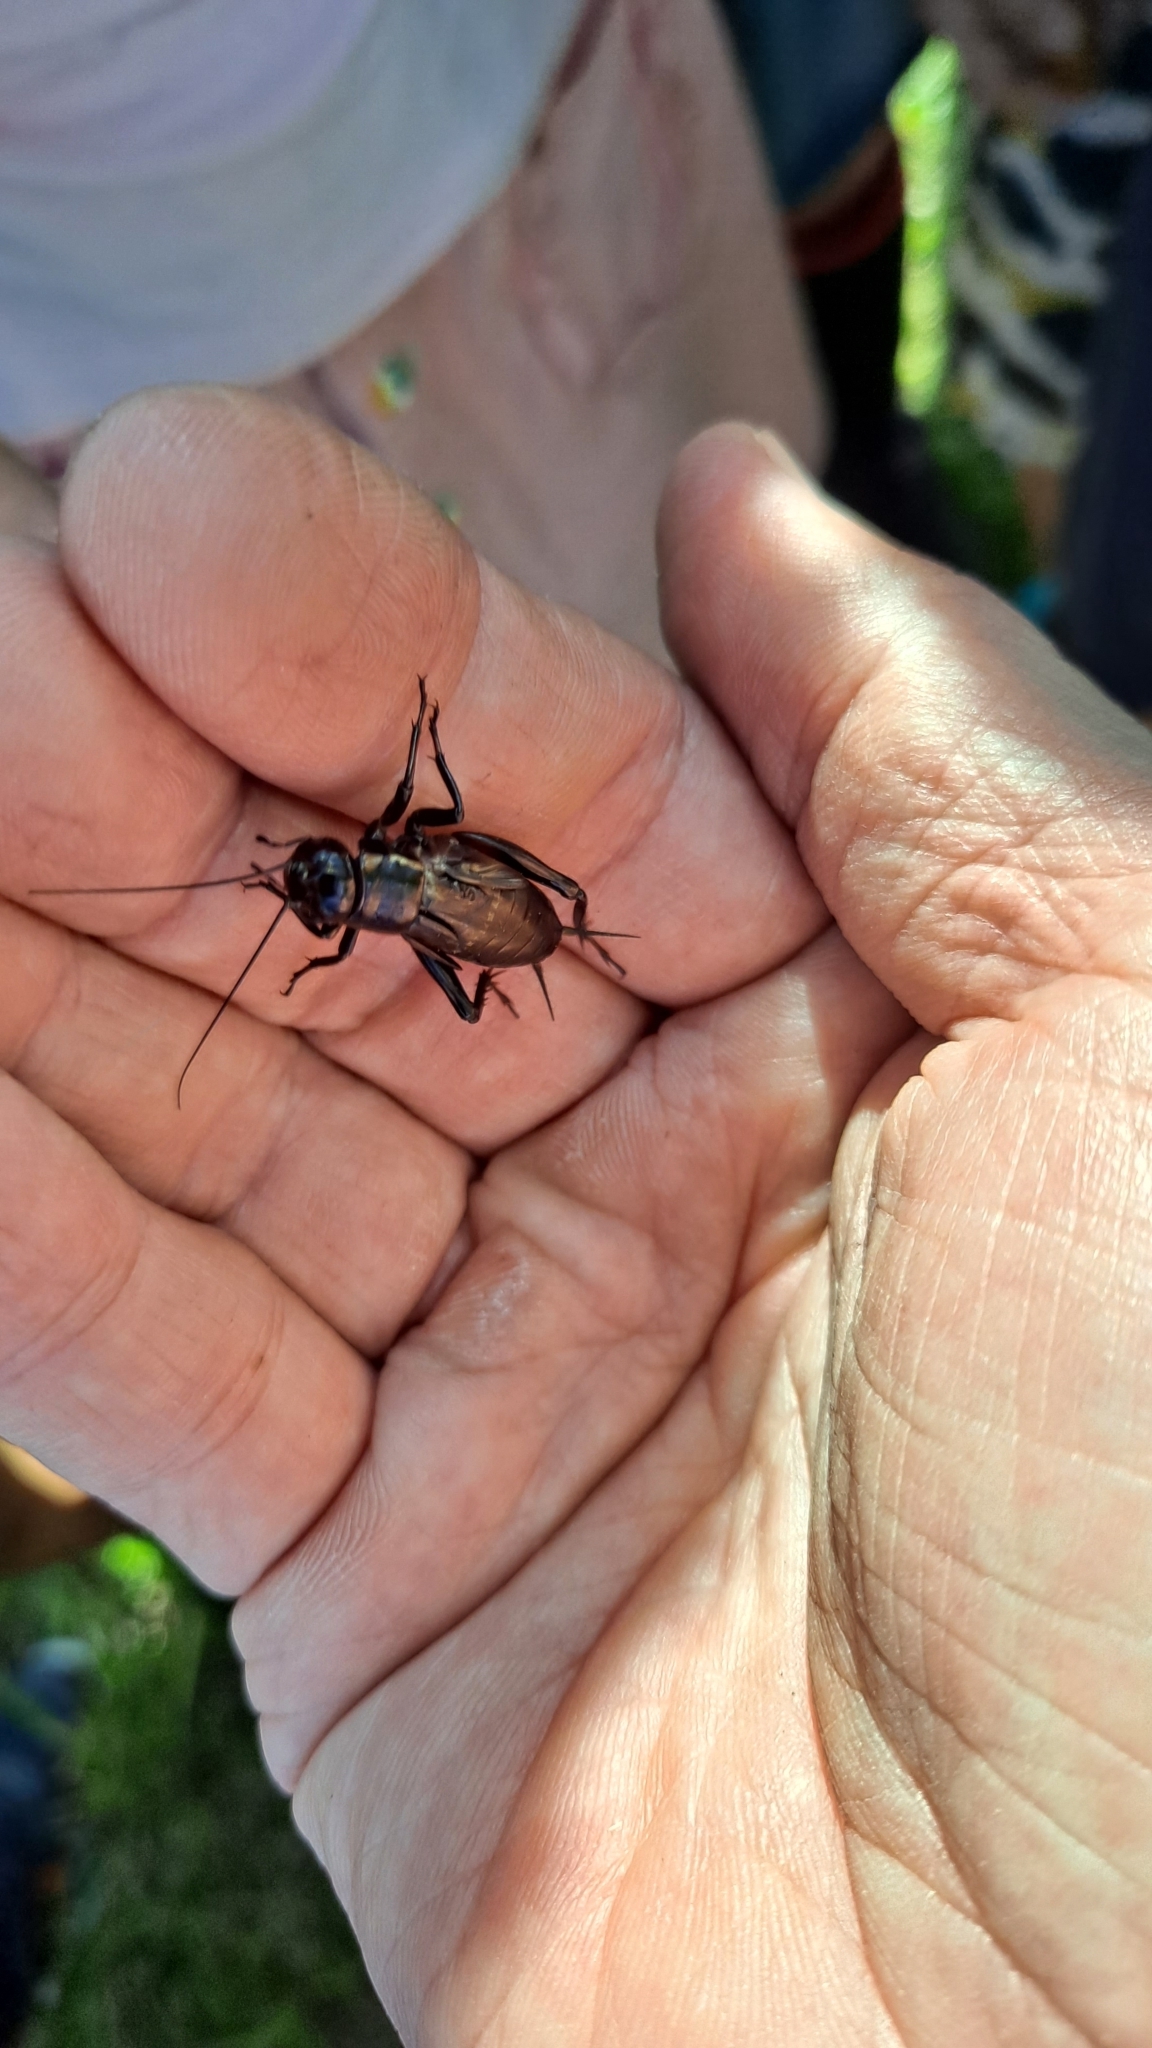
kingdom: Animalia
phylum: Arthropoda
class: Insecta
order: Orthoptera
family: Gryllidae
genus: Gryllus
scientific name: Gryllus bimaculatus
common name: Two-spotted cricket
